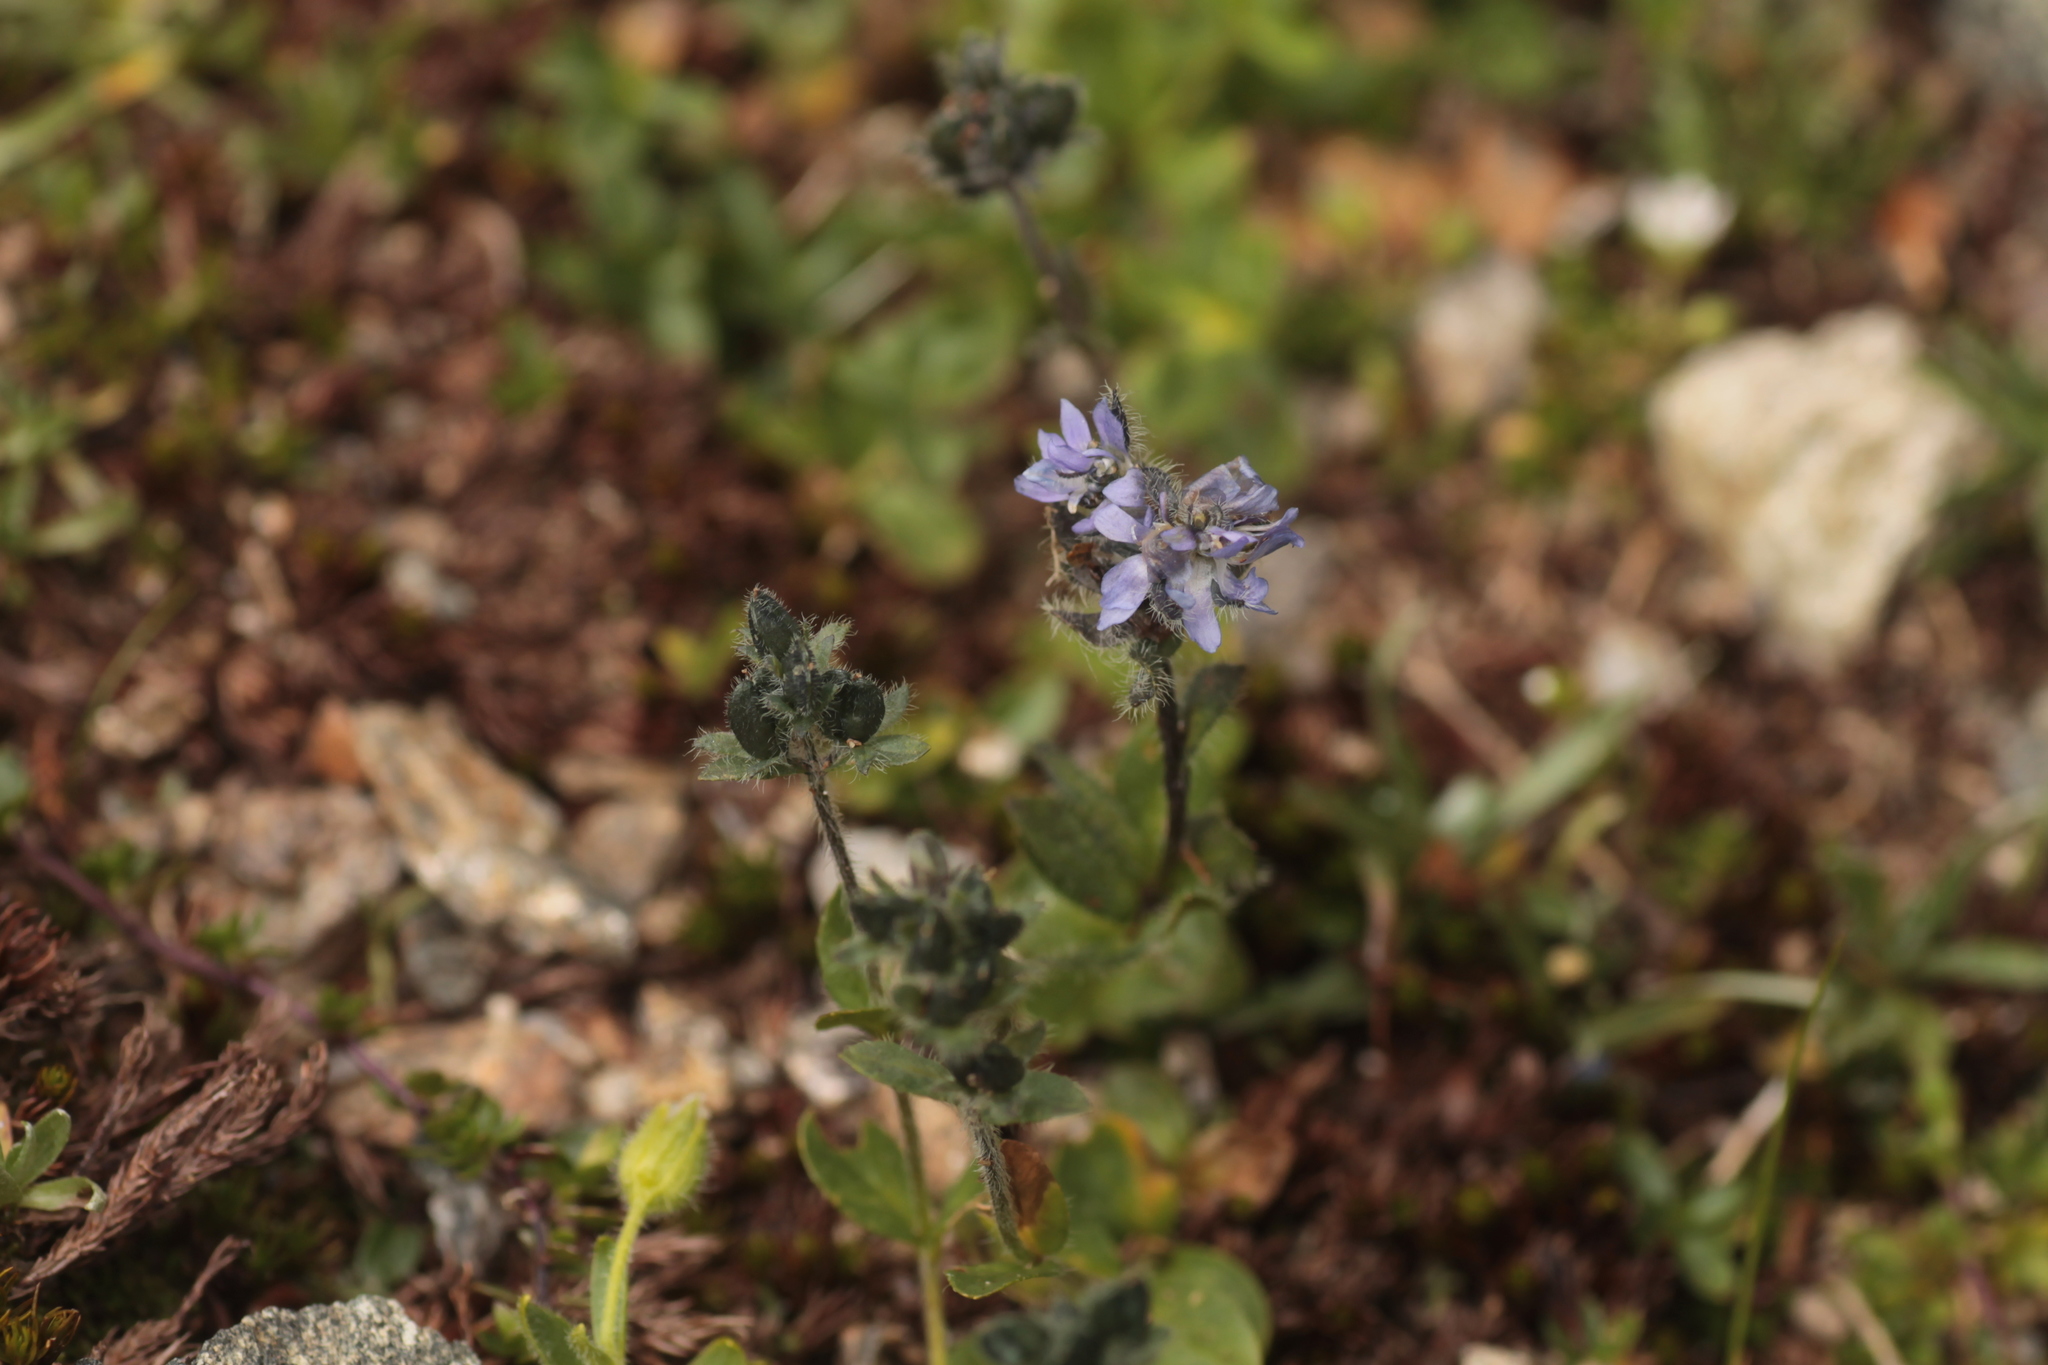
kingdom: Plantae
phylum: Tracheophyta
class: Magnoliopsida
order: Lamiales
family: Plantaginaceae
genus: Veronica
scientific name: Veronica alpina
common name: Alpine speedwell
